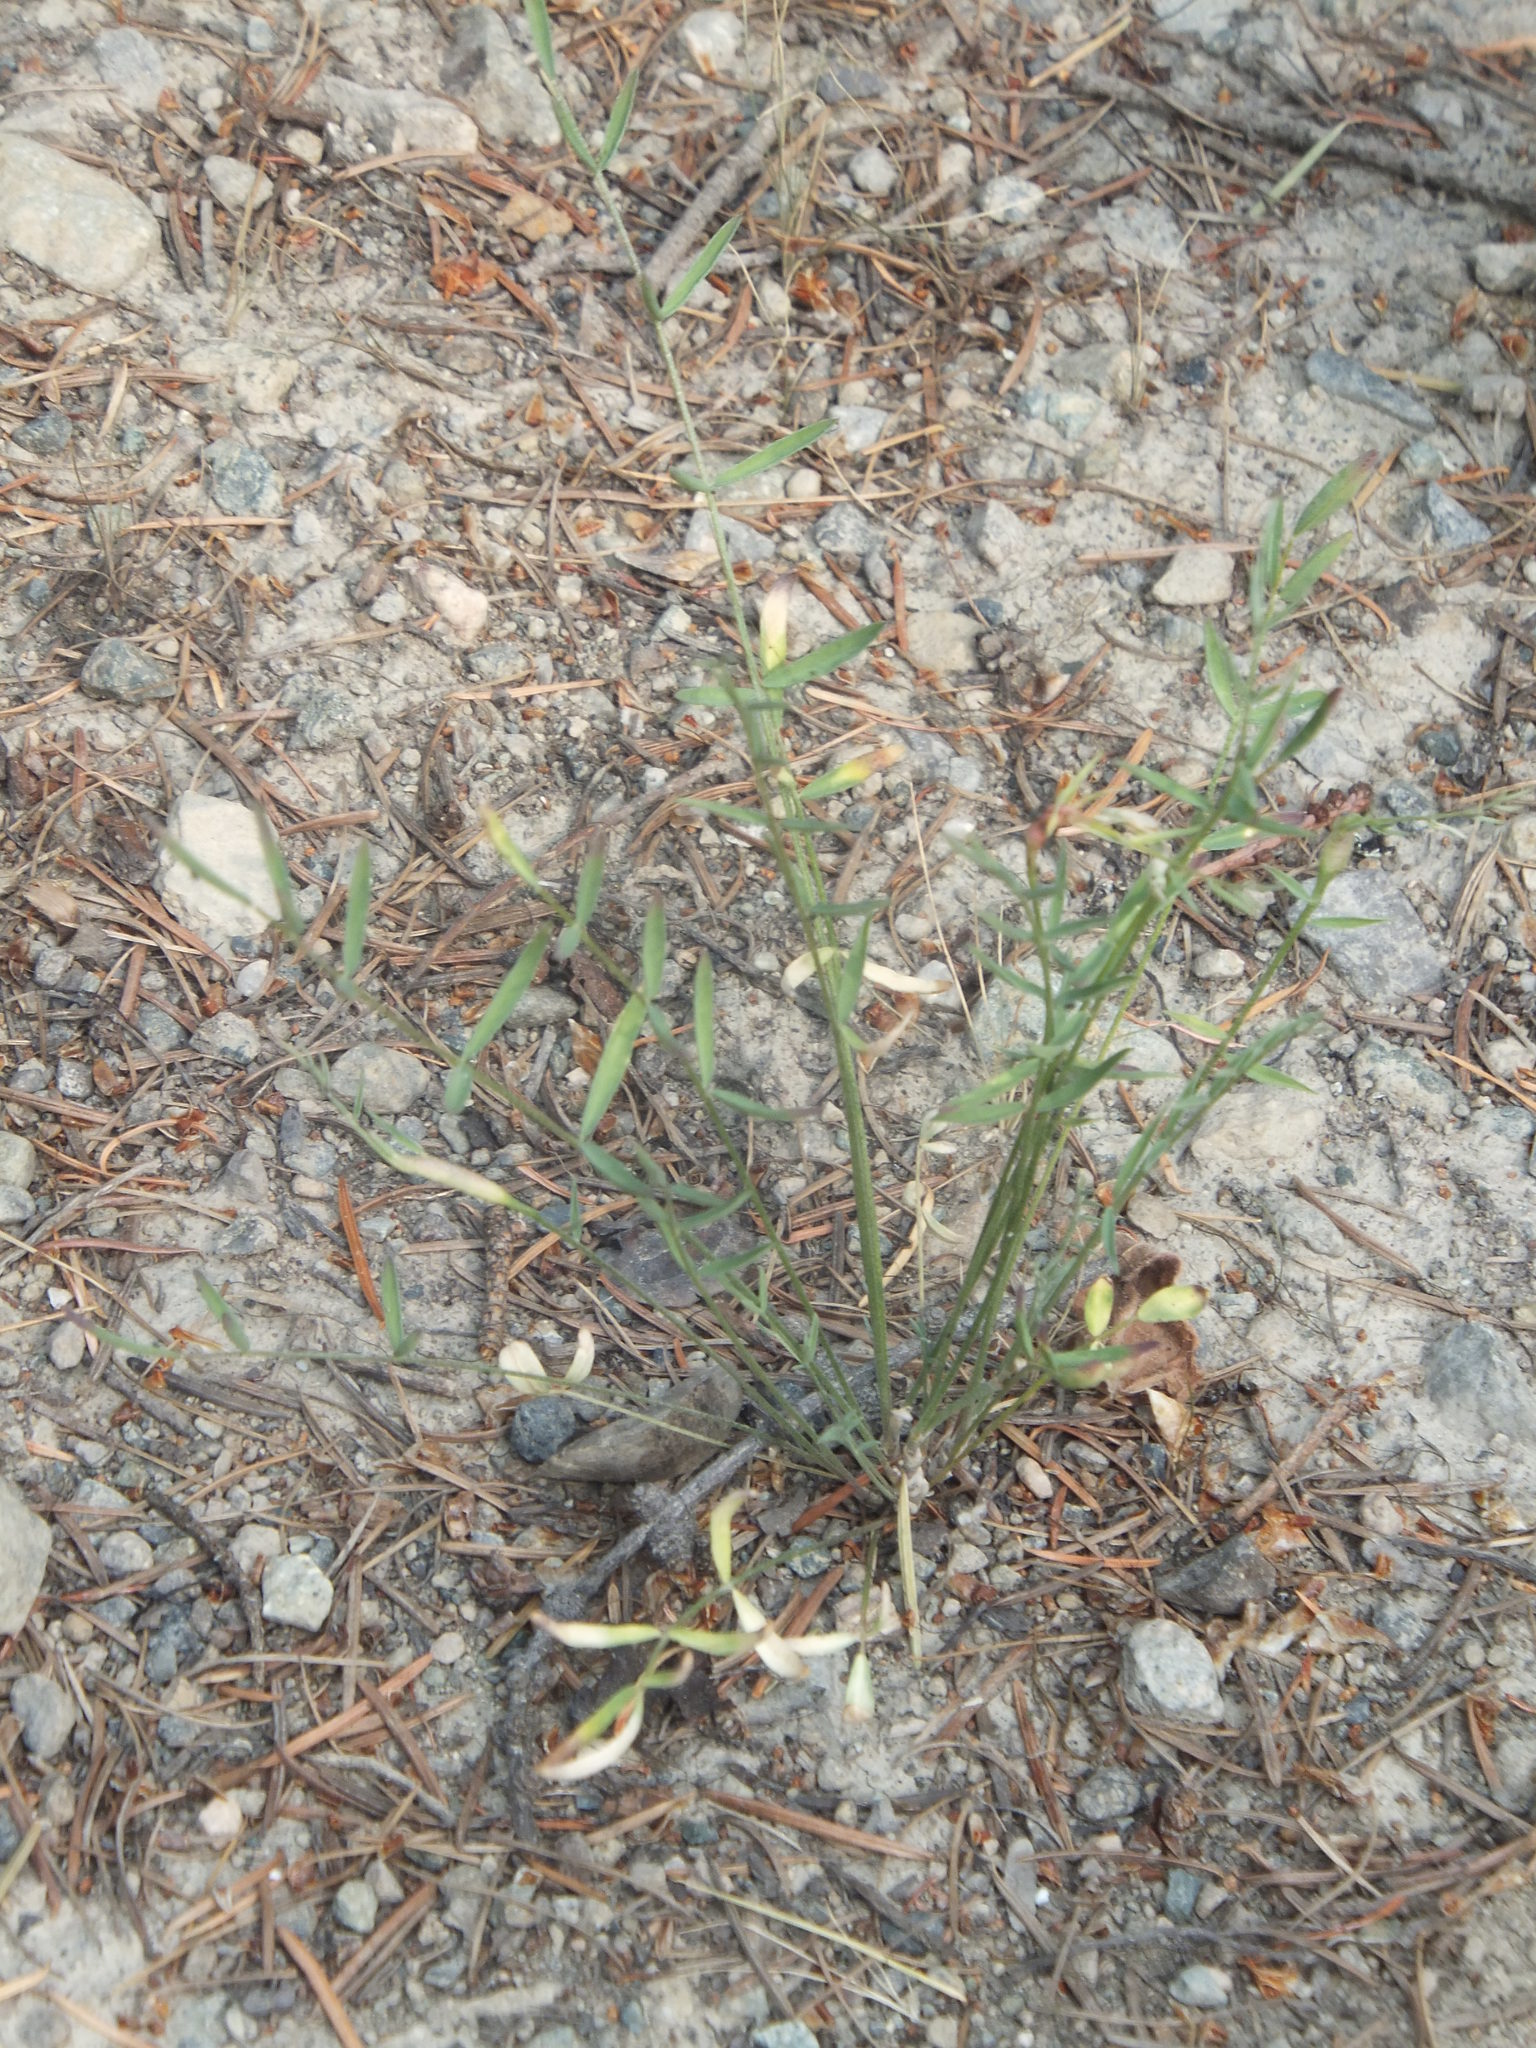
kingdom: Plantae
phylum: Tracheophyta
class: Magnoliopsida
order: Fabales
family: Fabaceae
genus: Astragalus
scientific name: Astragalus miser
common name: Timber milkvetch
